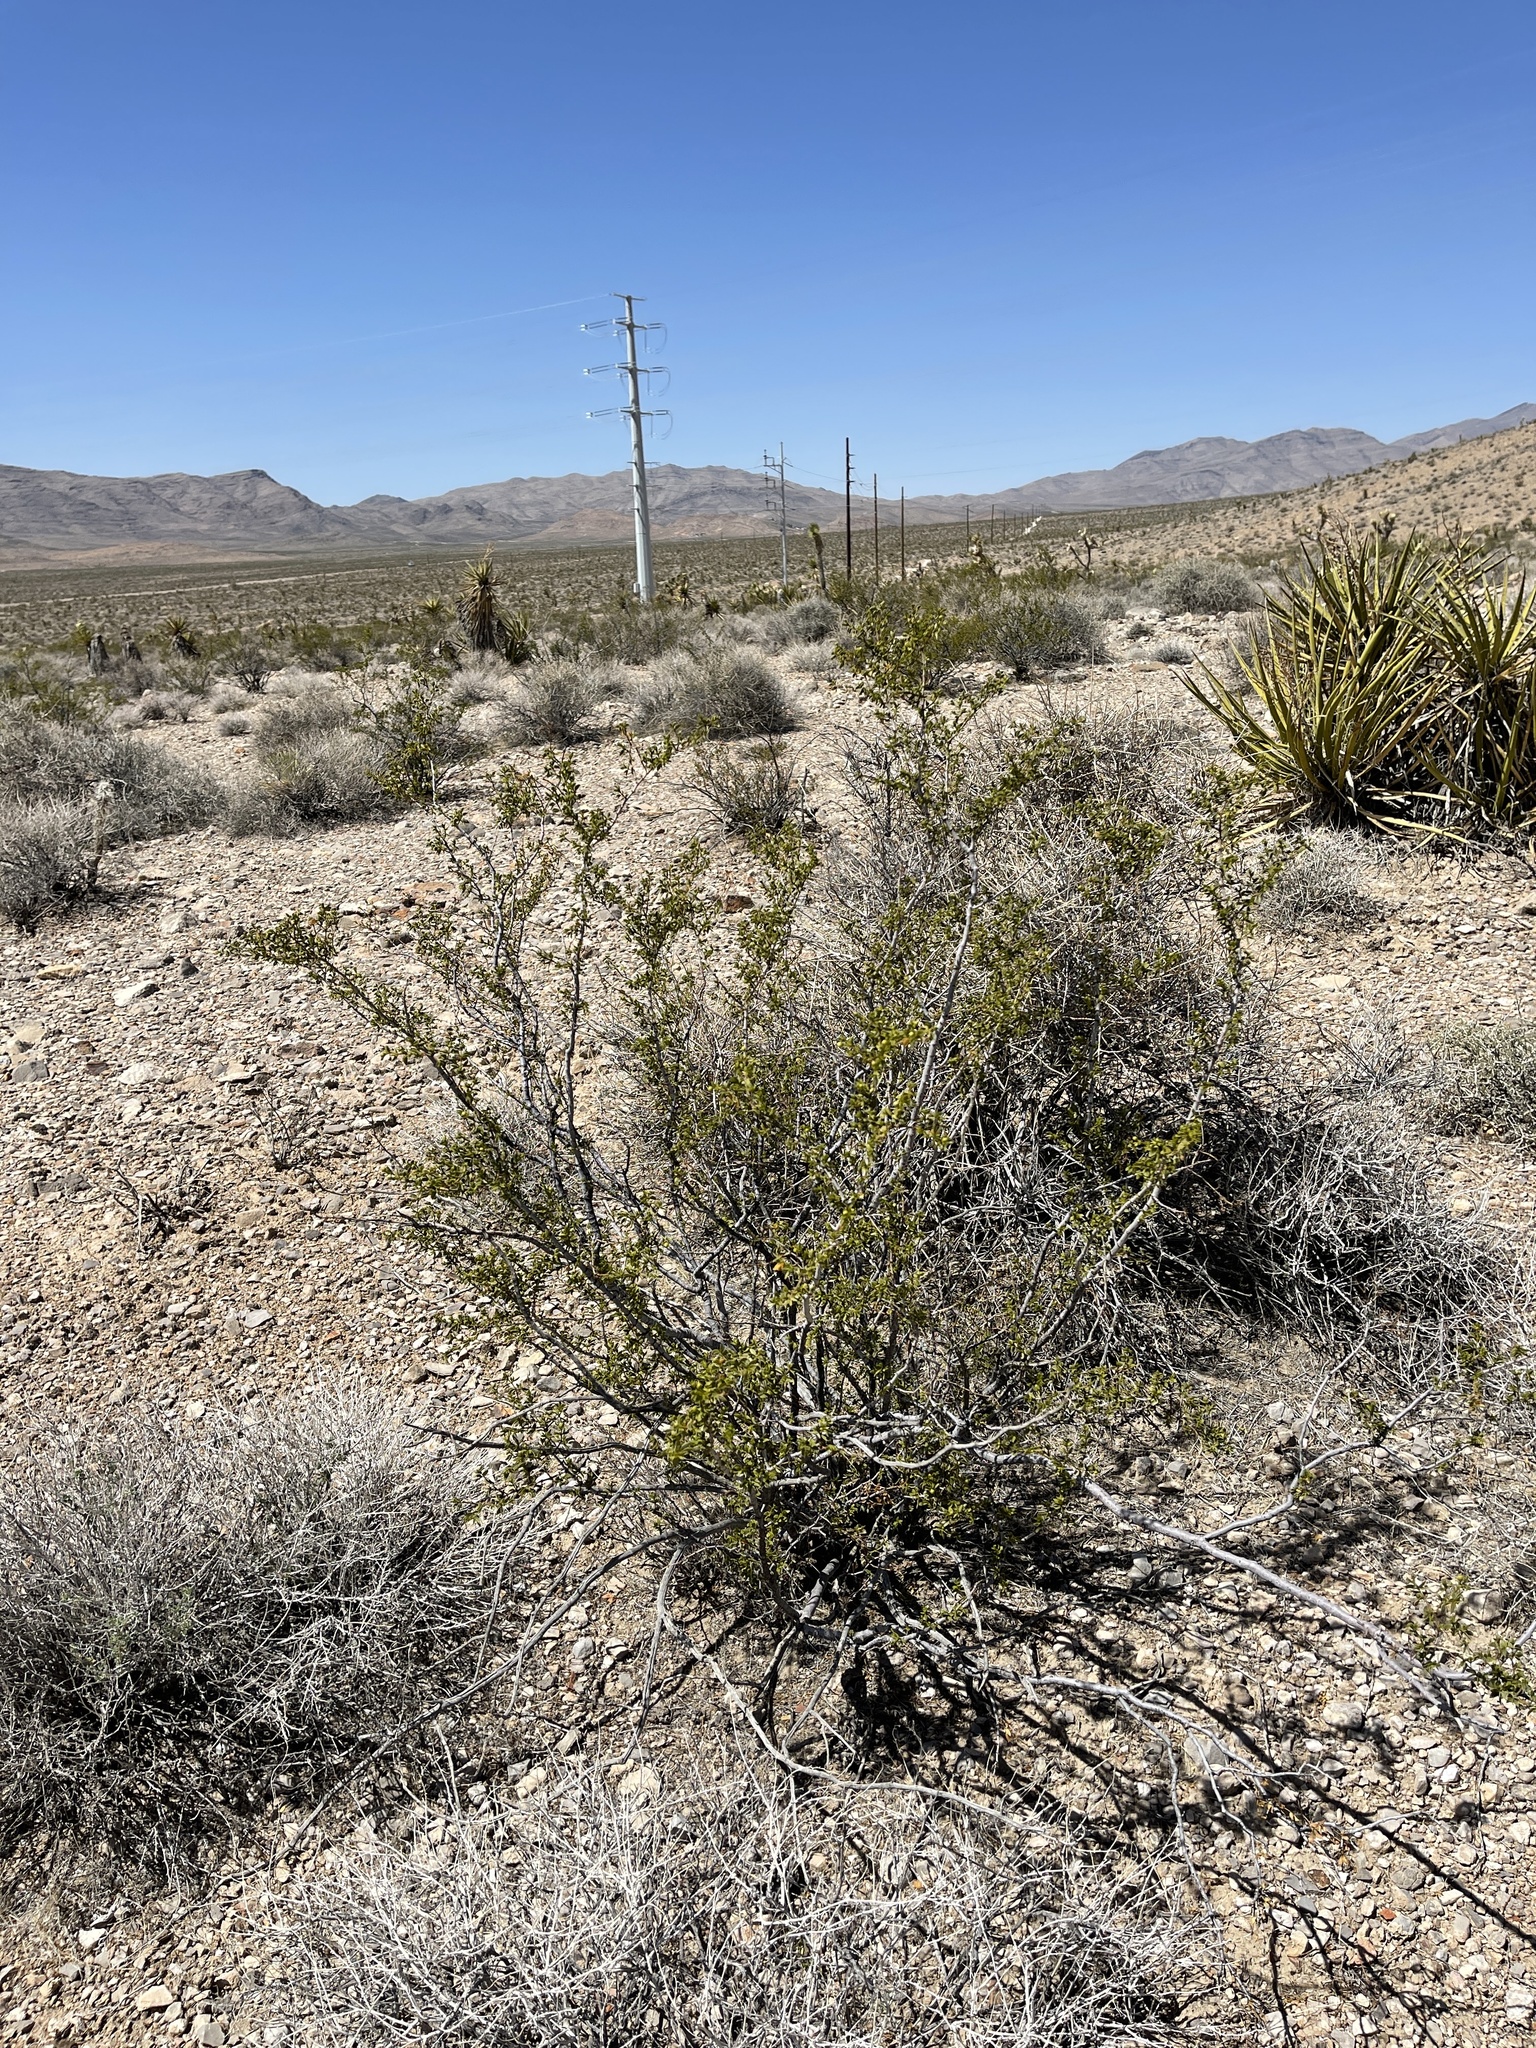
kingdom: Plantae
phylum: Tracheophyta
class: Magnoliopsida
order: Zygophyllales
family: Zygophyllaceae
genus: Larrea
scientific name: Larrea tridentata
